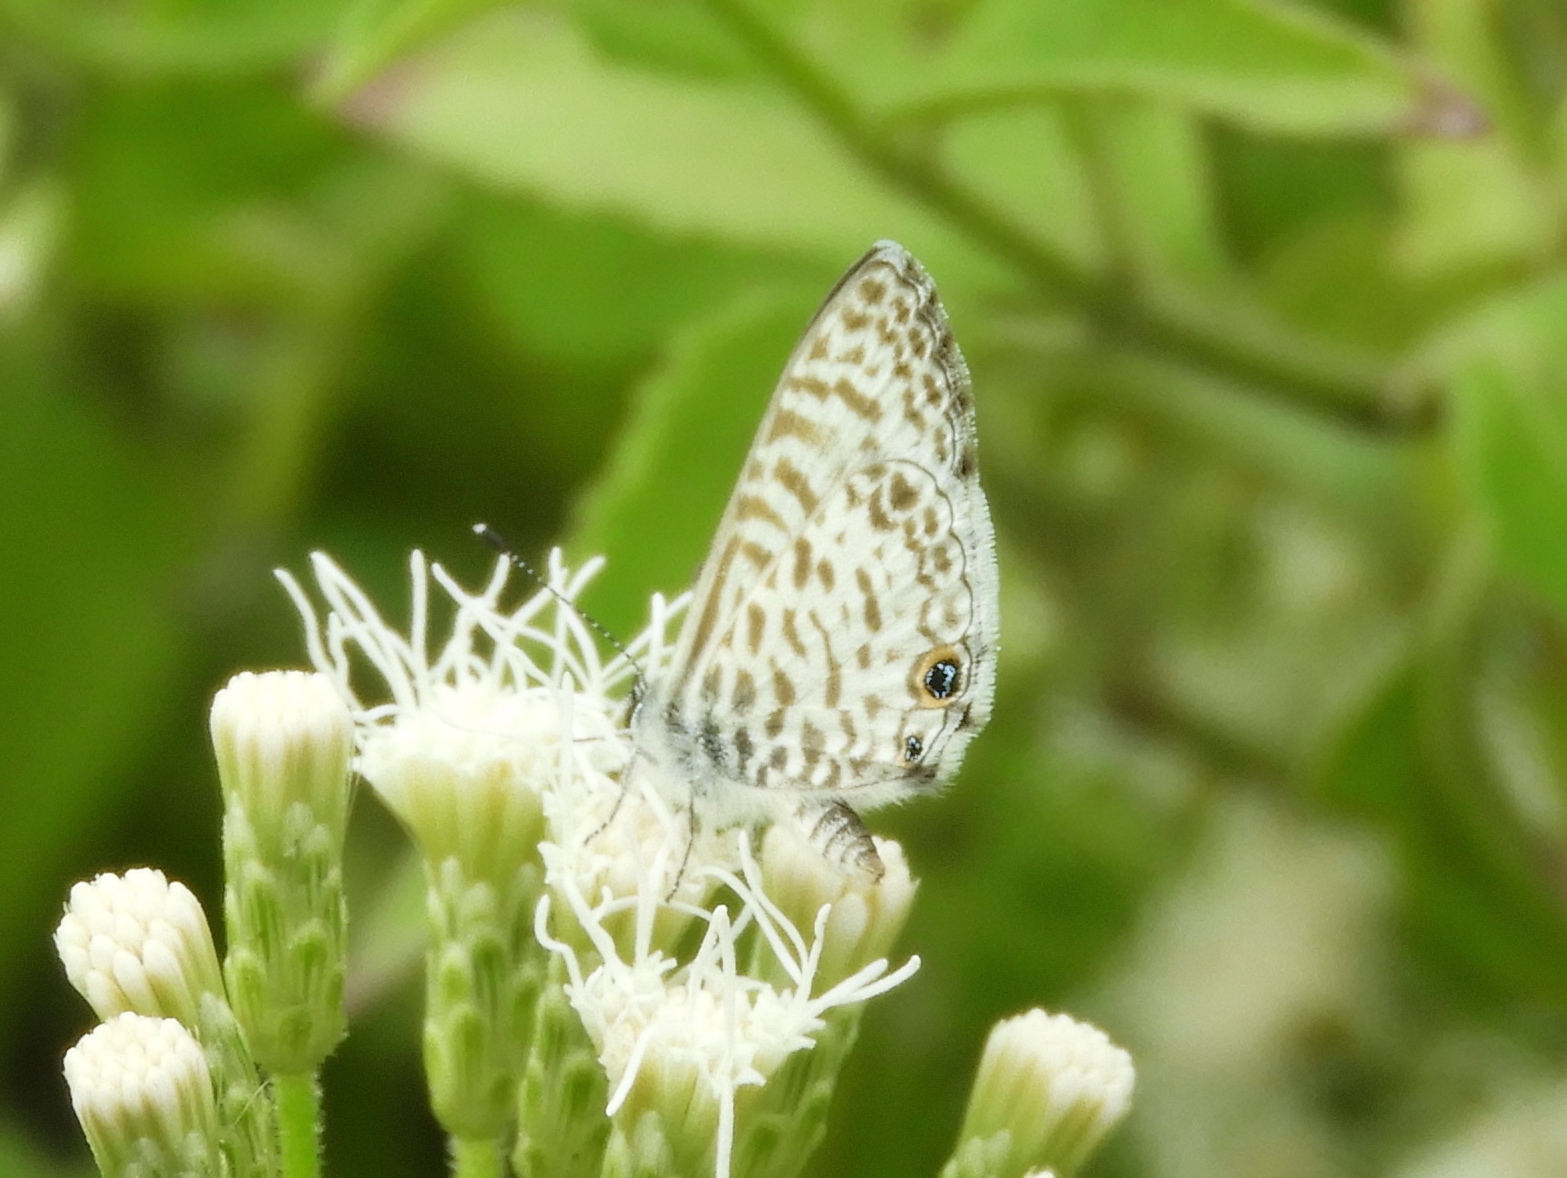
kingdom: Animalia
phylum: Arthropoda
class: Insecta
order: Lepidoptera
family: Lycaenidae
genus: Leptotes
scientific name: Leptotes cassius
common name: Cassius blue
